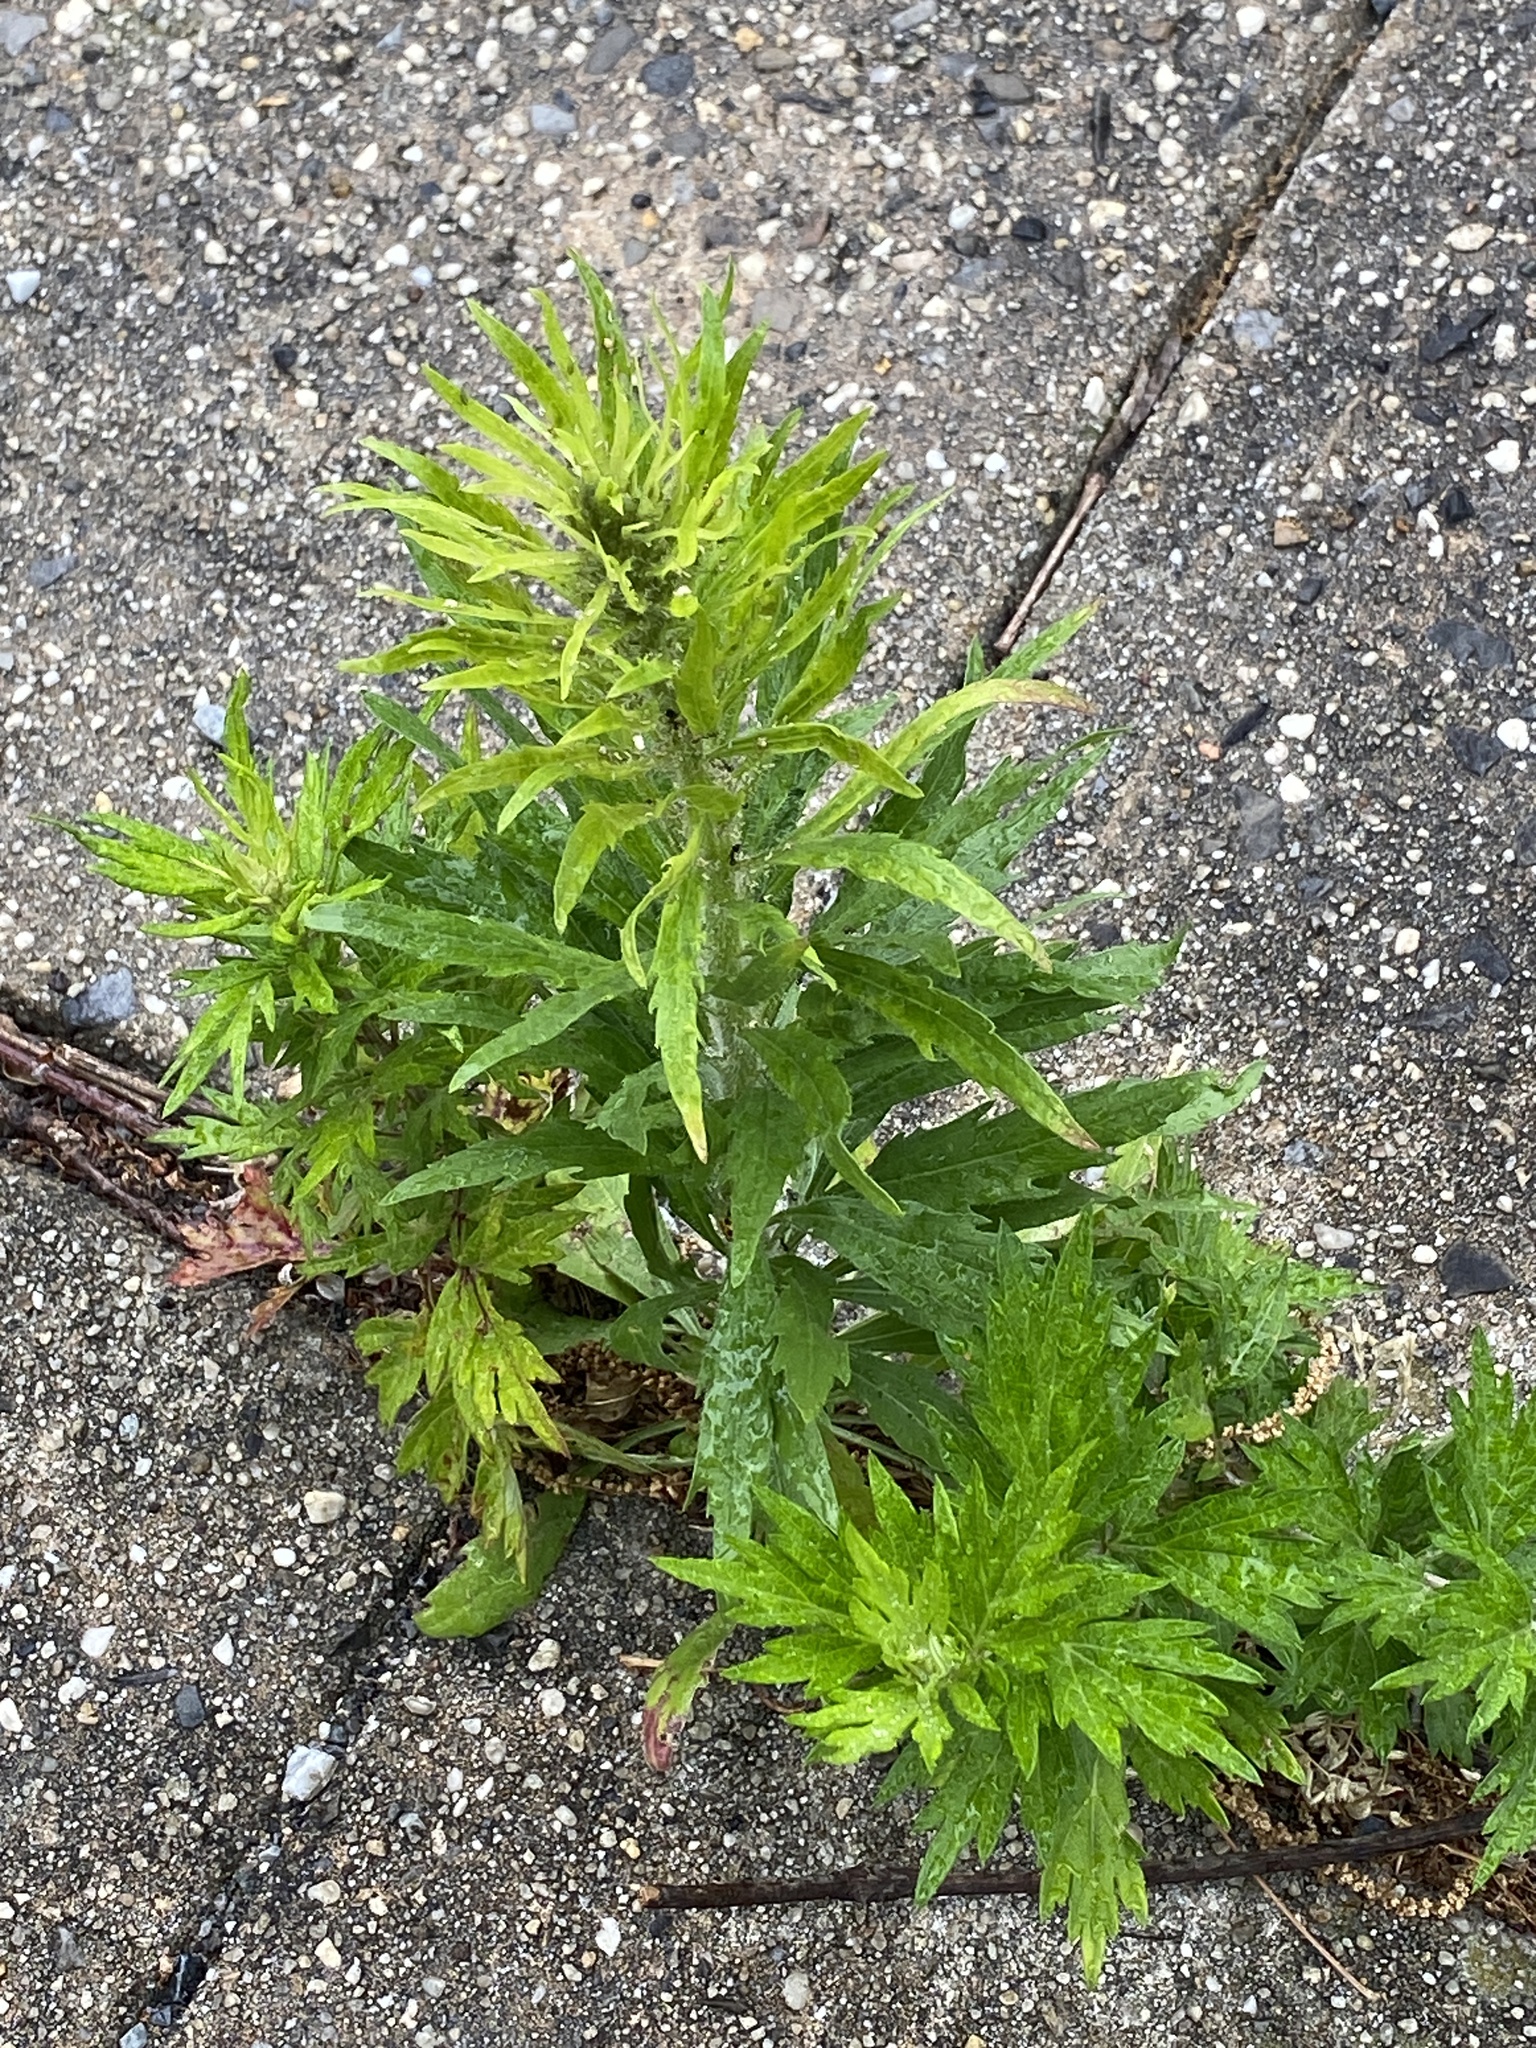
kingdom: Plantae
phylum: Tracheophyta
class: Magnoliopsida
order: Asterales
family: Asteraceae
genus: Erigeron
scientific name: Erigeron canadensis
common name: Canadian fleabane
